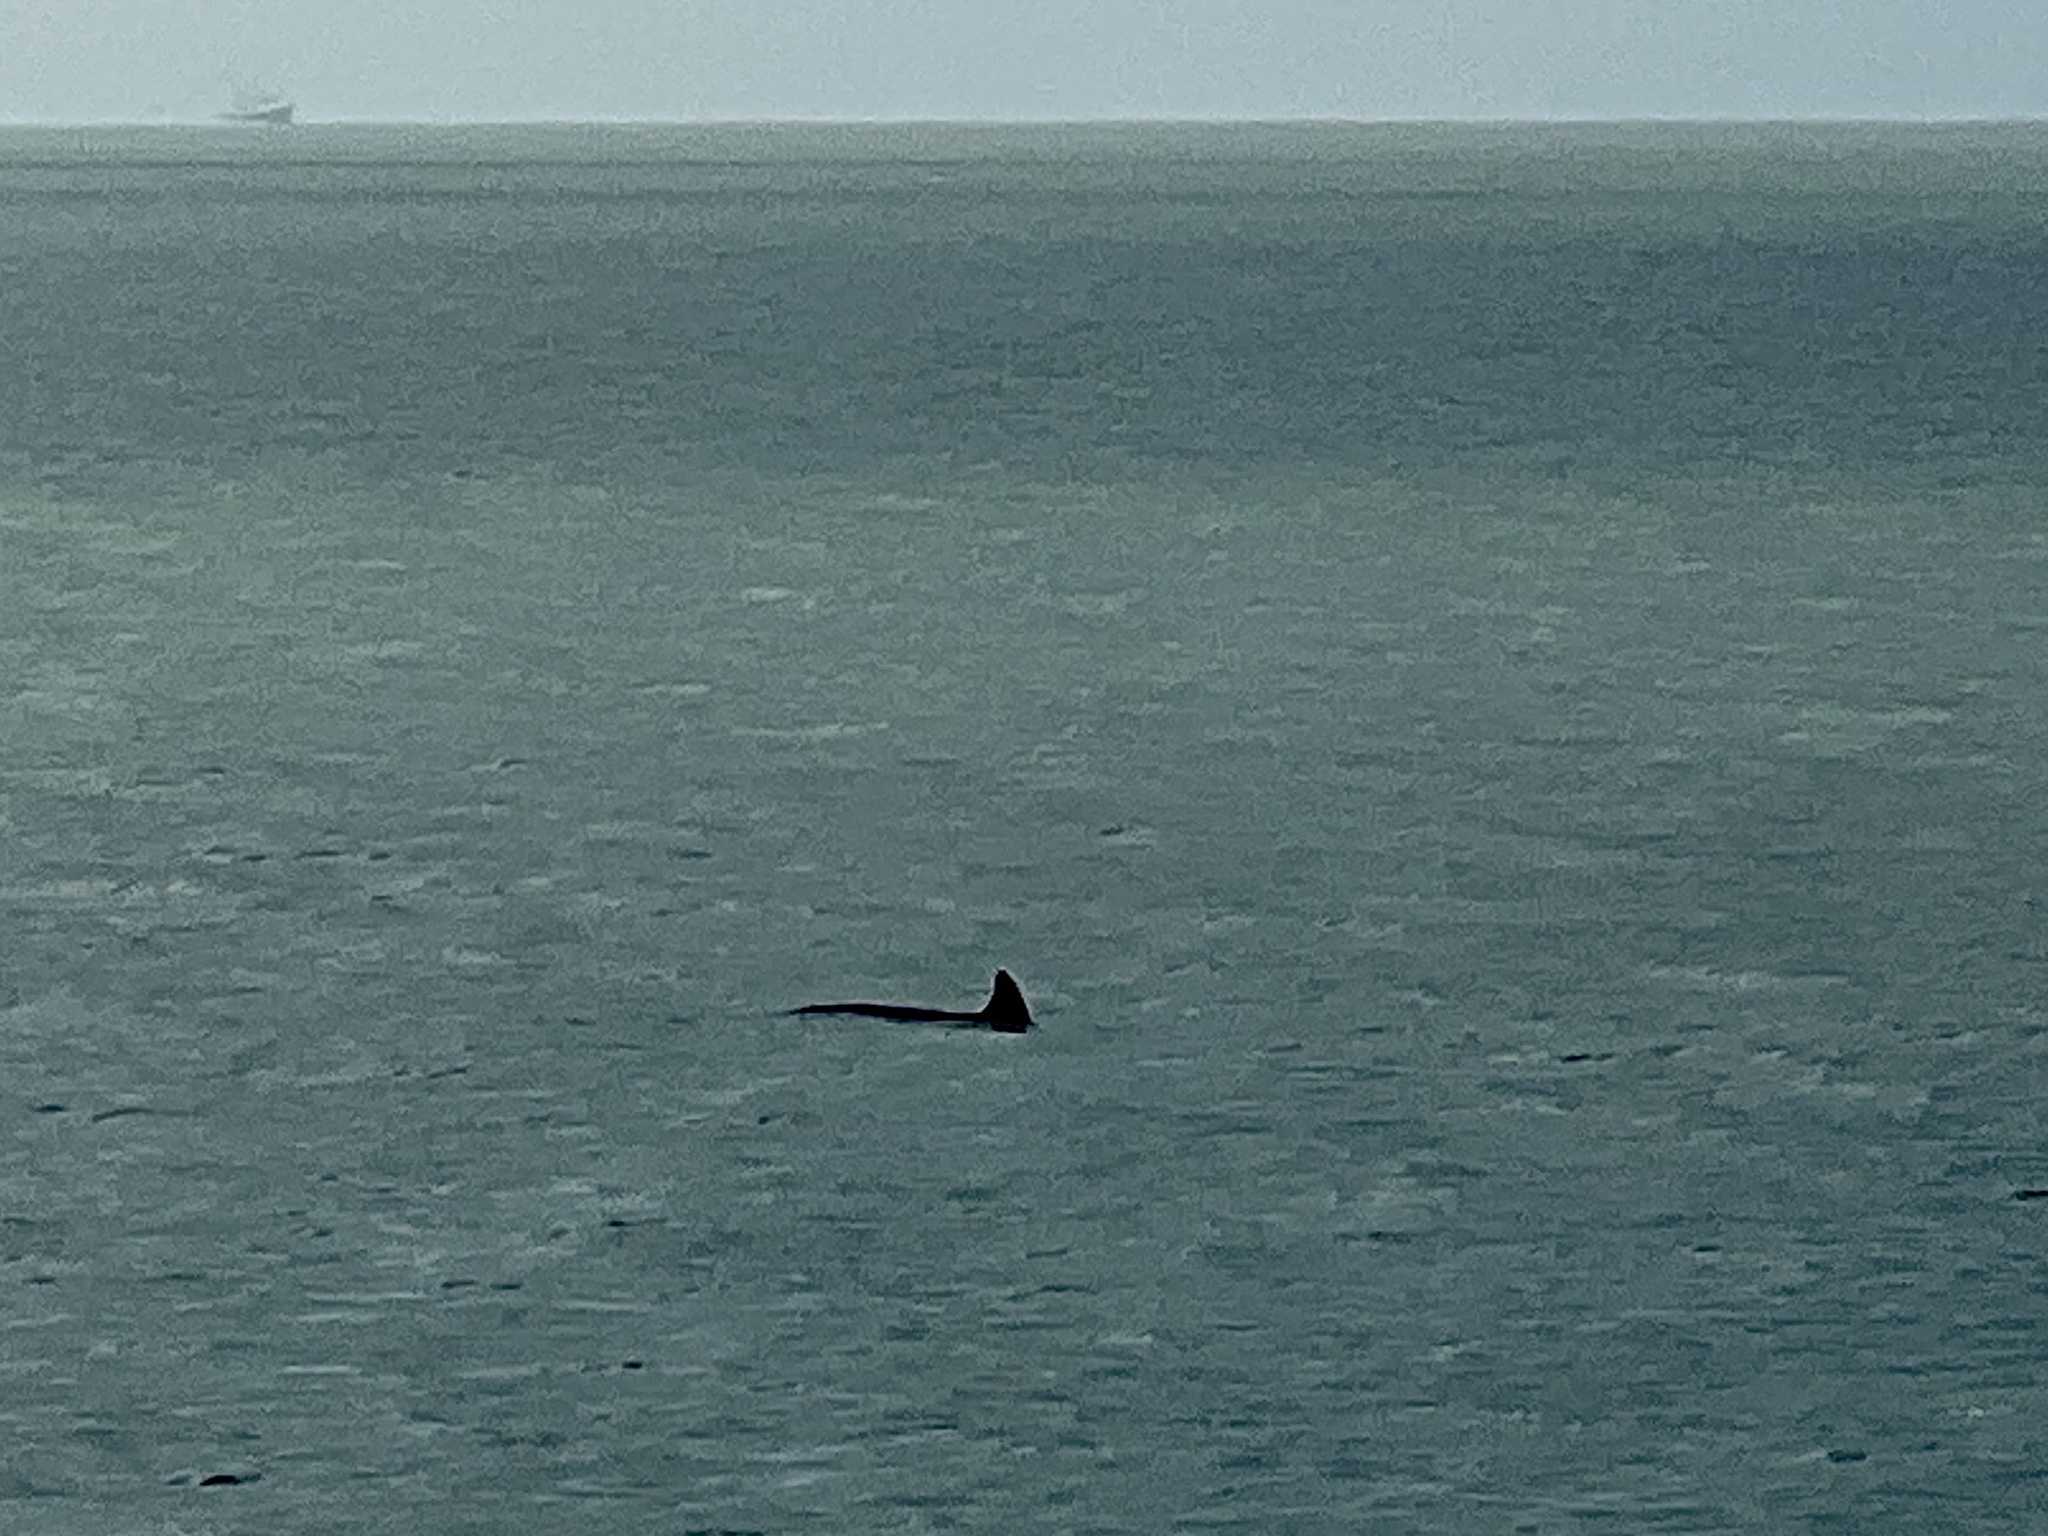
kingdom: Animalia
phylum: Chordata
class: Mammalia
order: Cetacea
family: Delphinidae
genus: Tursiops
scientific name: Tursiops truncatus
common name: Bottlenose dolphin
